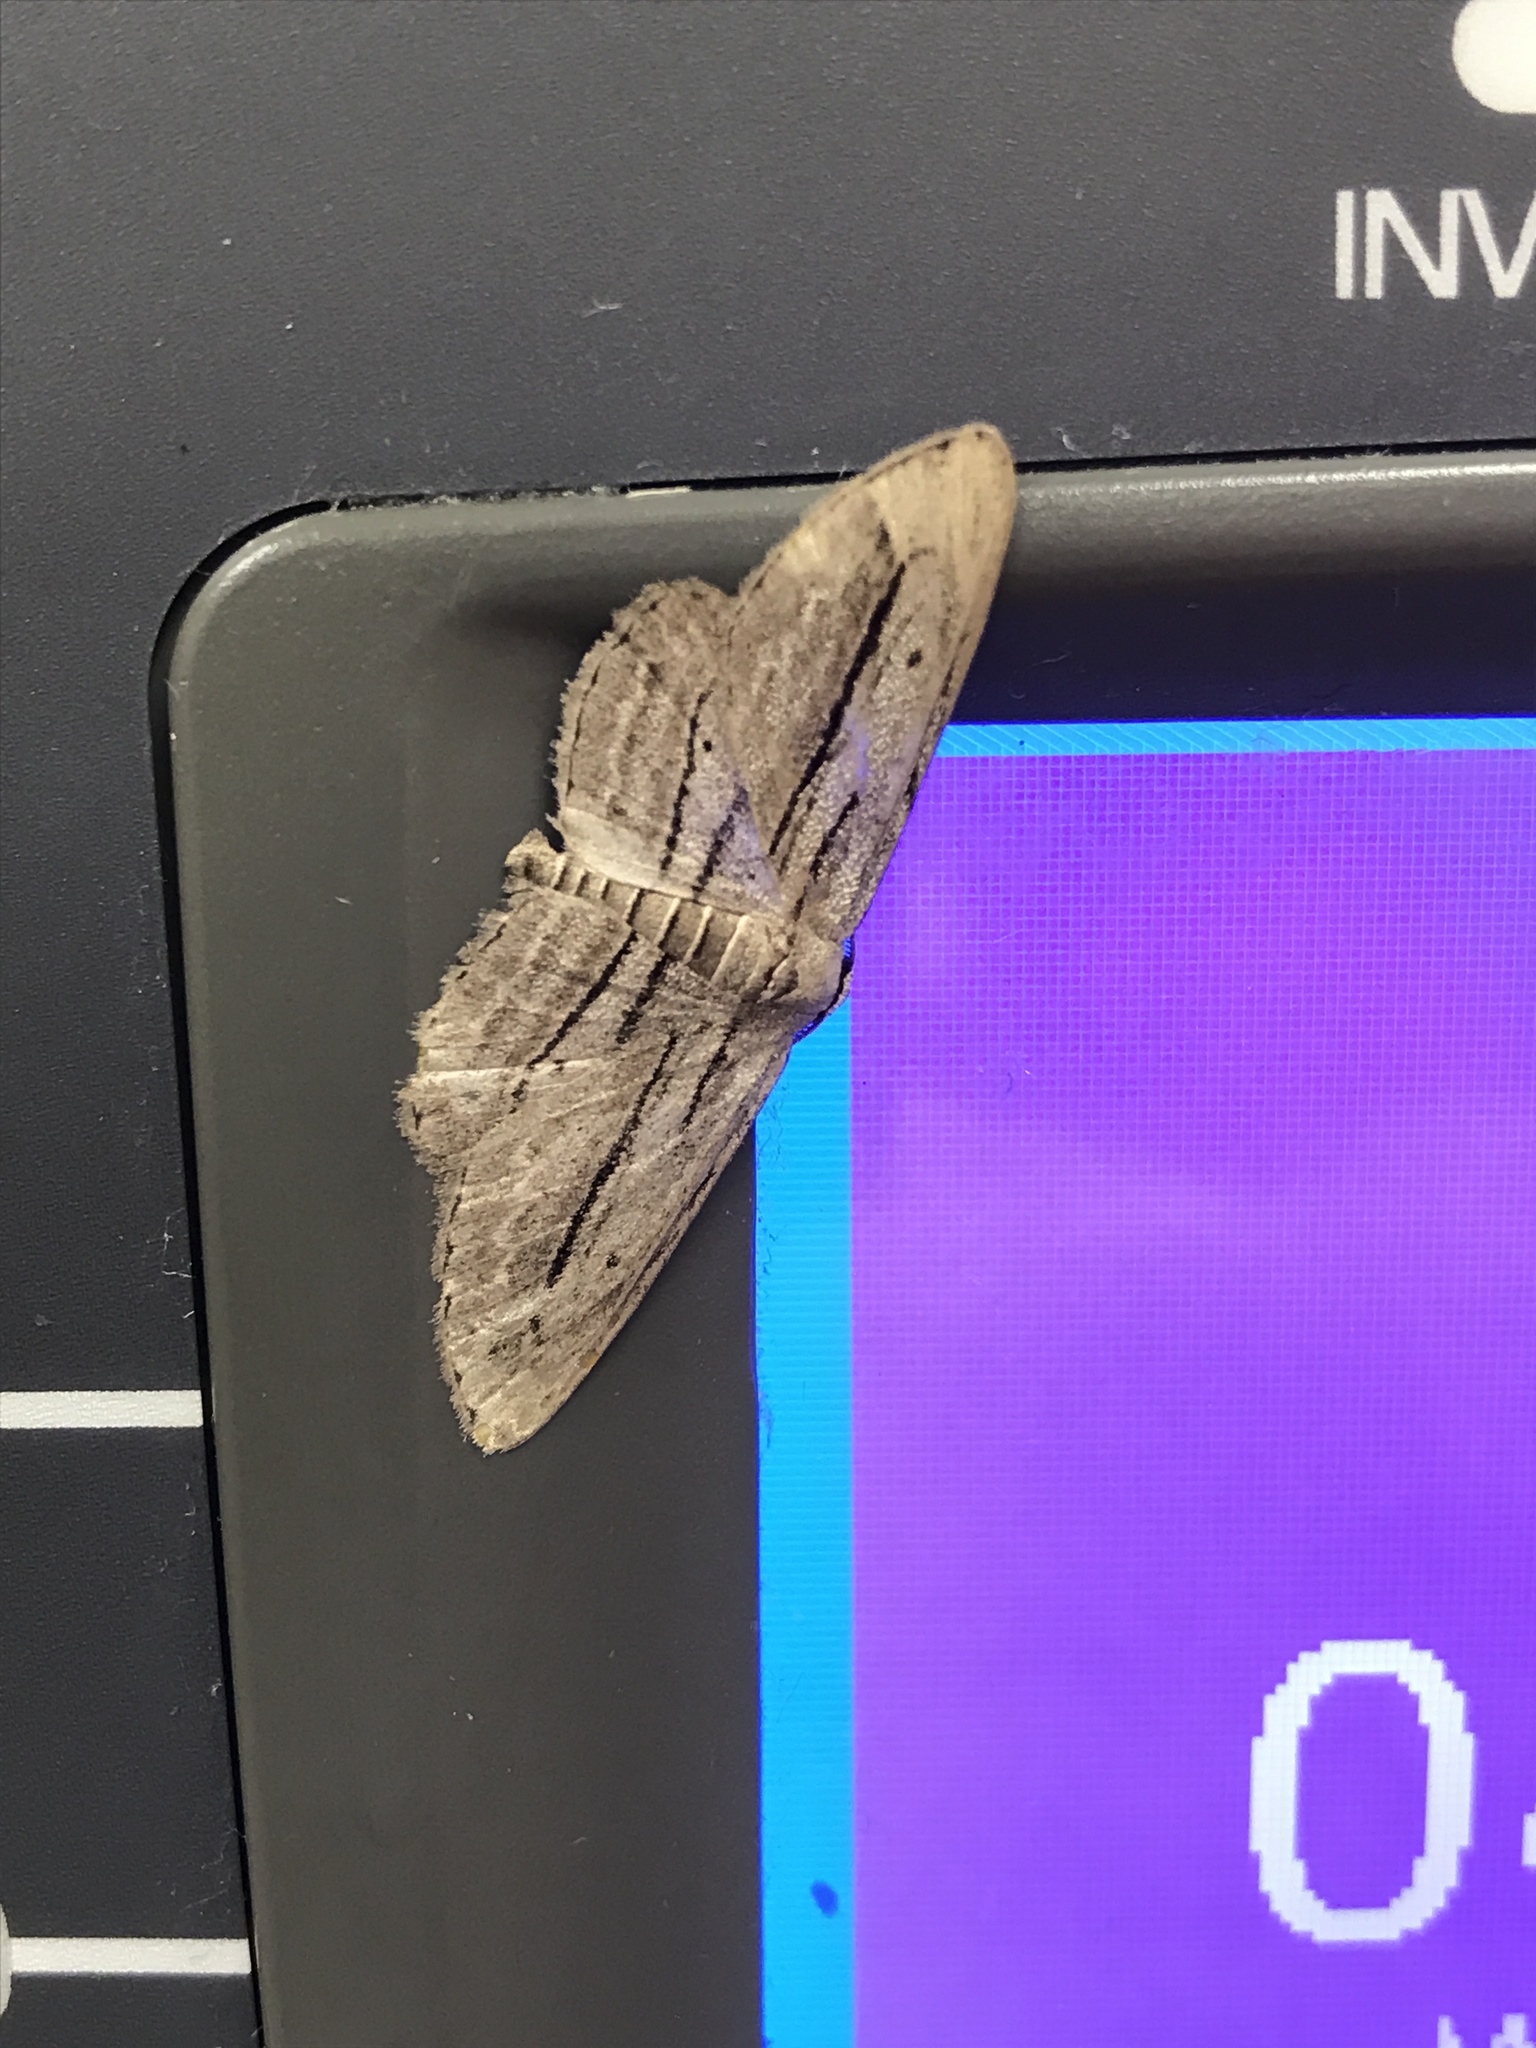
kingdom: Animalia
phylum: Arthropoda
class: Insecta
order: Lepidoptera
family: Geometridae
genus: Glena
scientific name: Glena quinquelinearia
